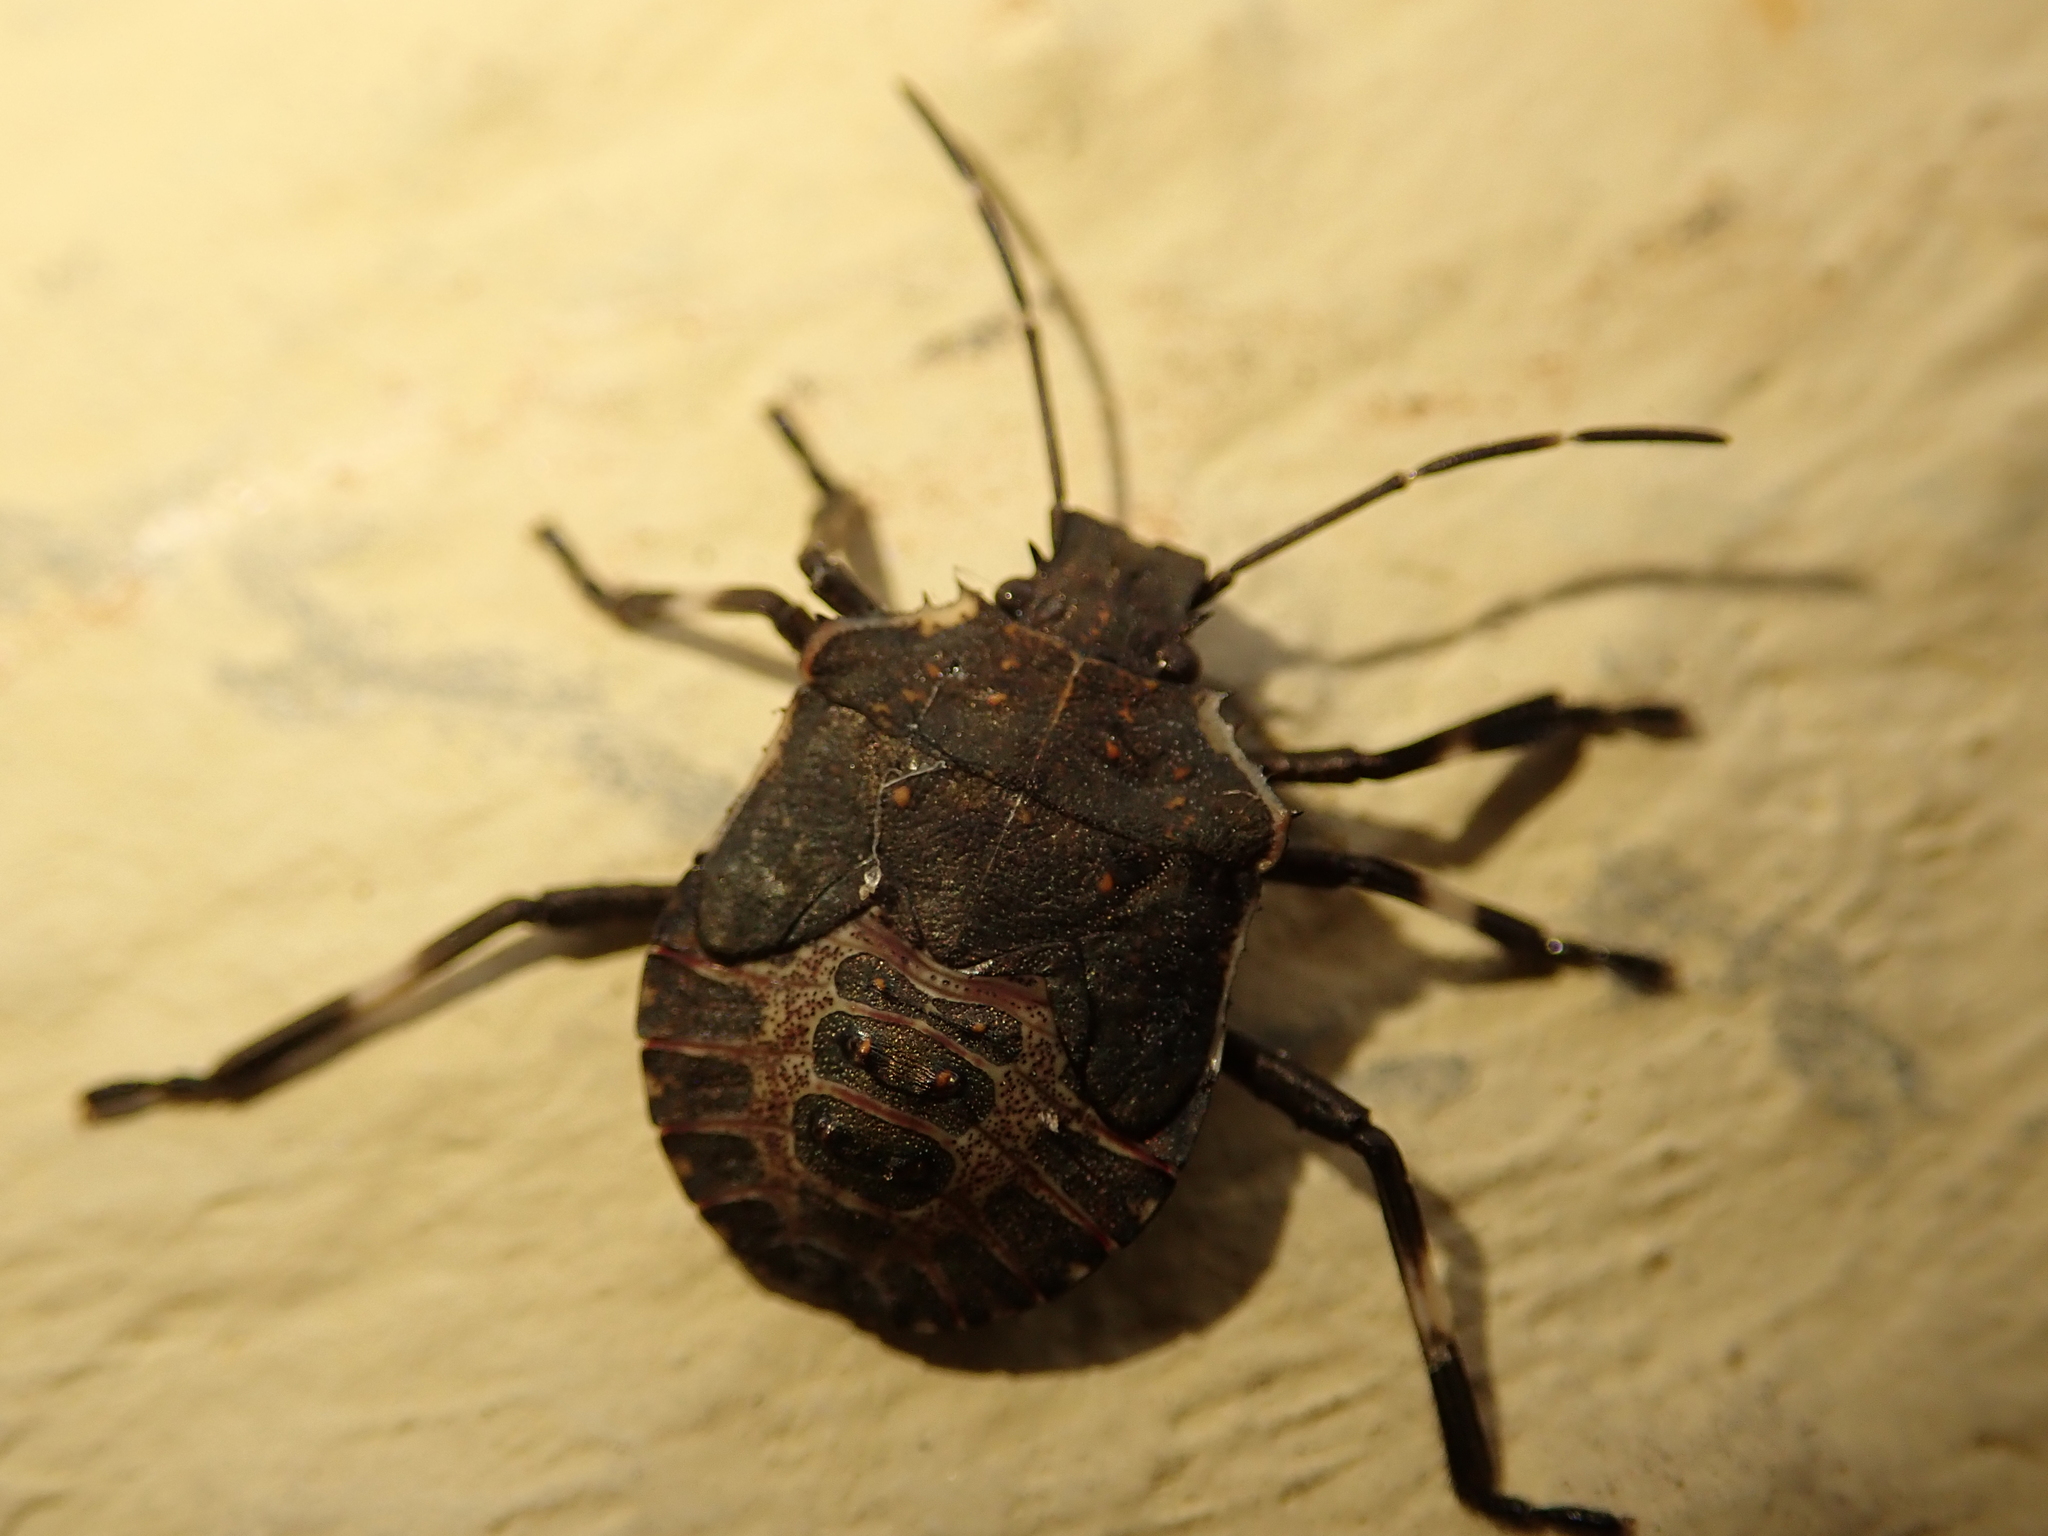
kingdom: Animalia
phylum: Arthropoda
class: Insecta
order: Hemiptera
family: Pentatomidae
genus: Halyomorpha
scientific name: Halyomorpha halys
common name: Brown marmorated stink bug
